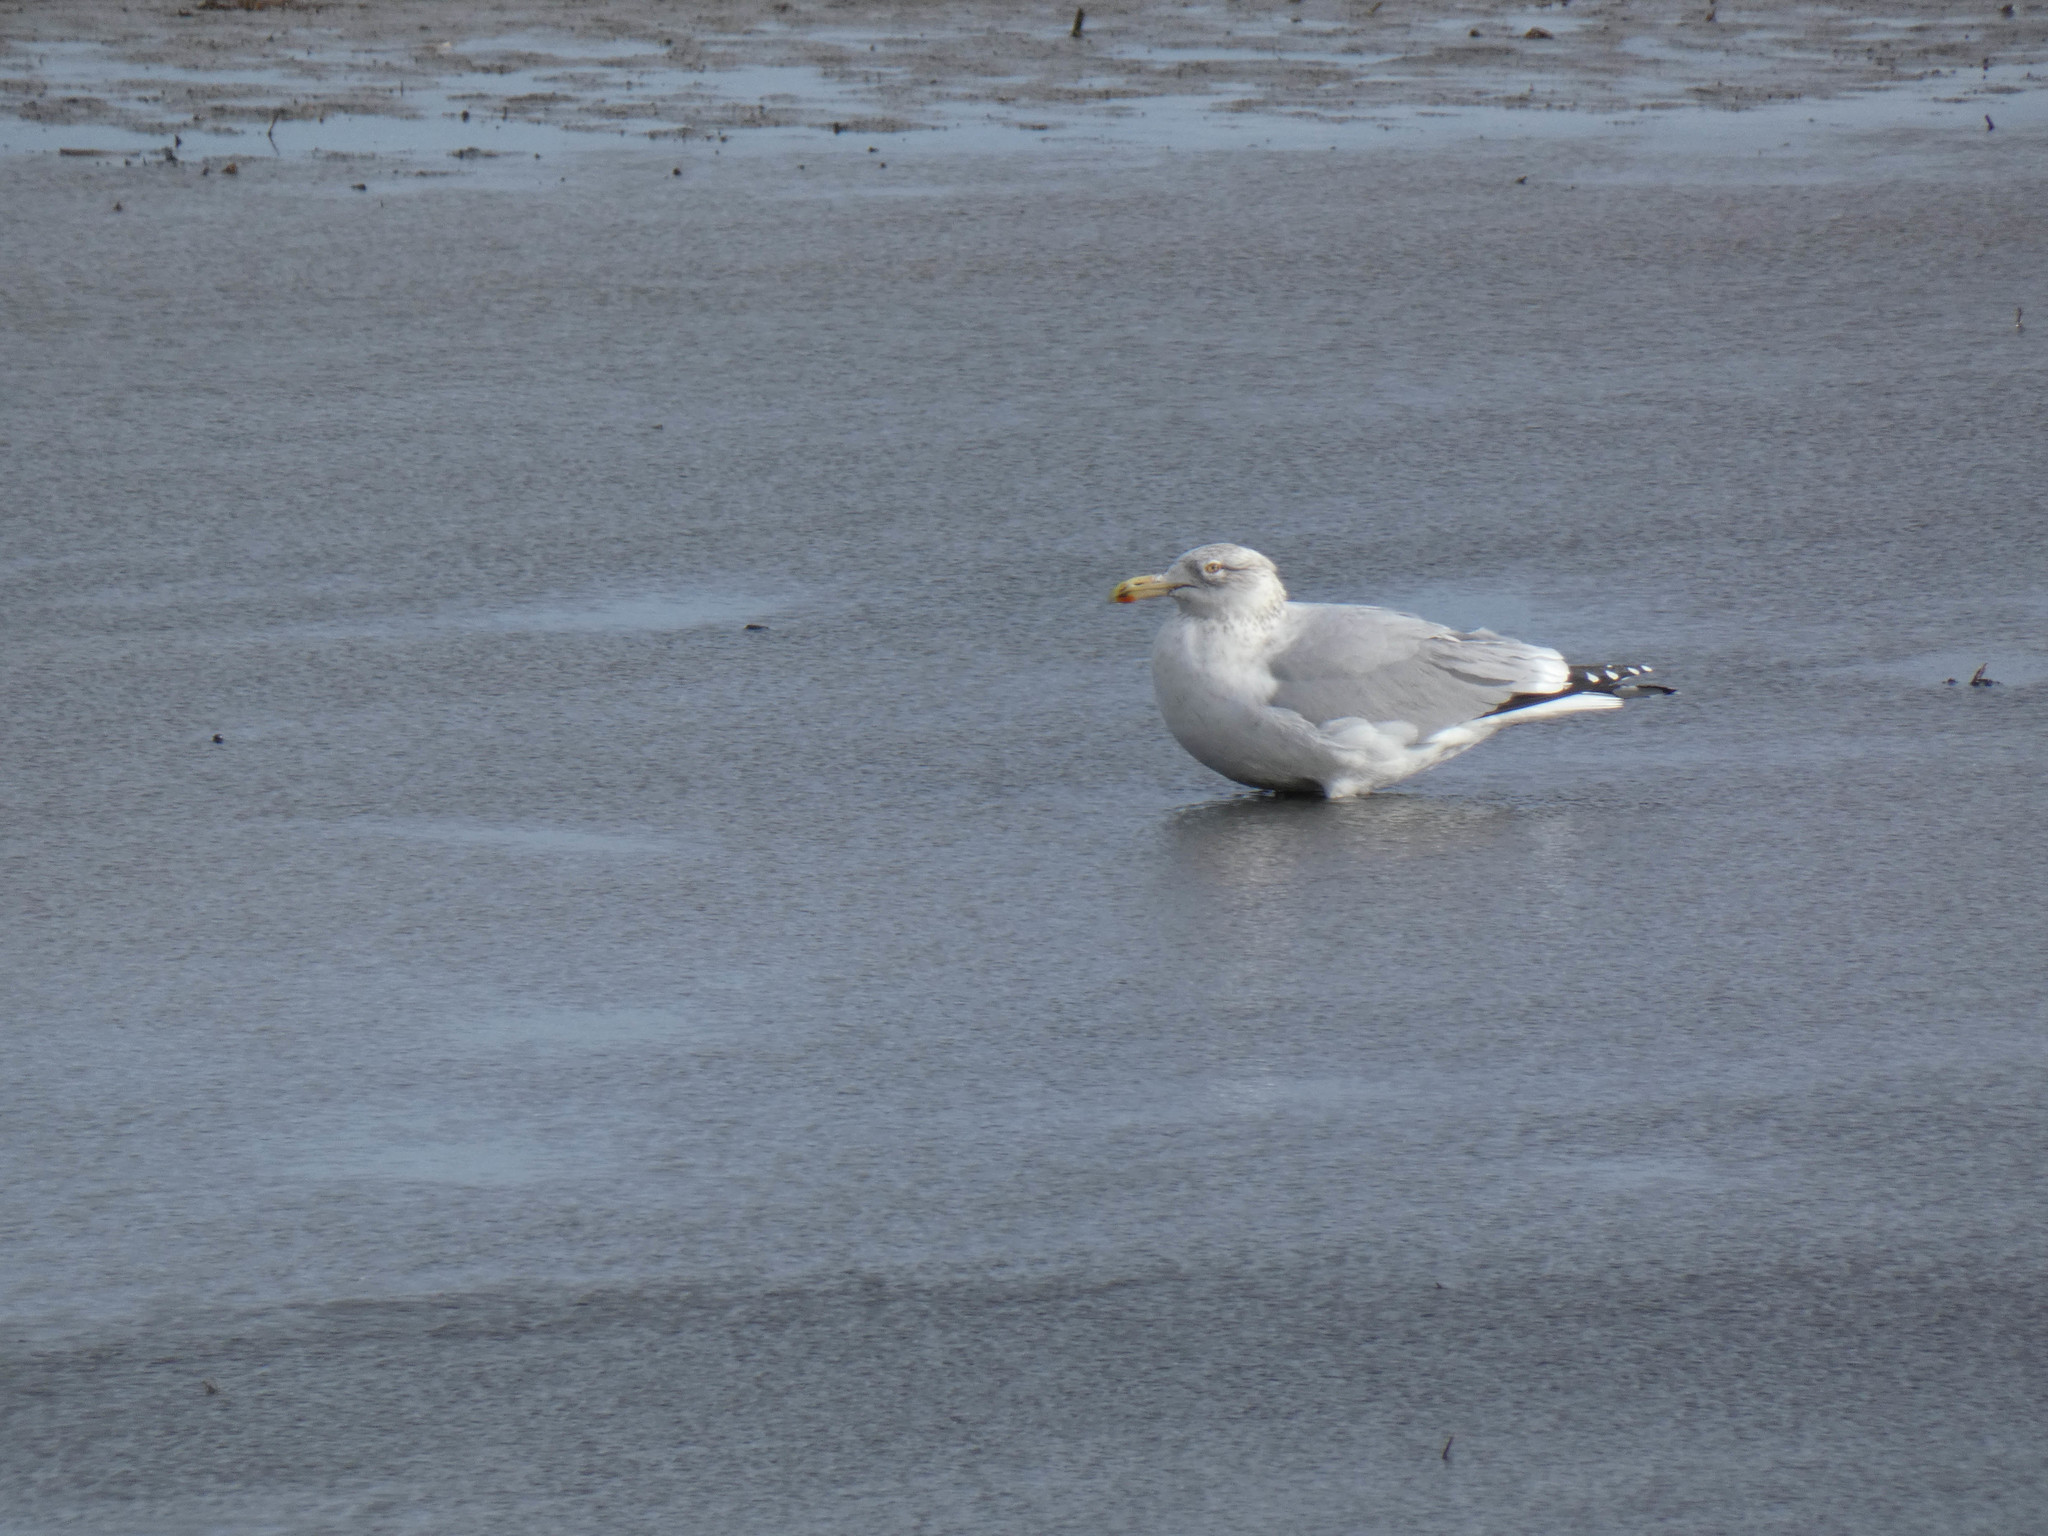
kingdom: Animalia
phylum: Chordata
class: Aves
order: Charadriiformes
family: Laridae
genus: Larus
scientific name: Larus argentatus
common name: Herring gull
